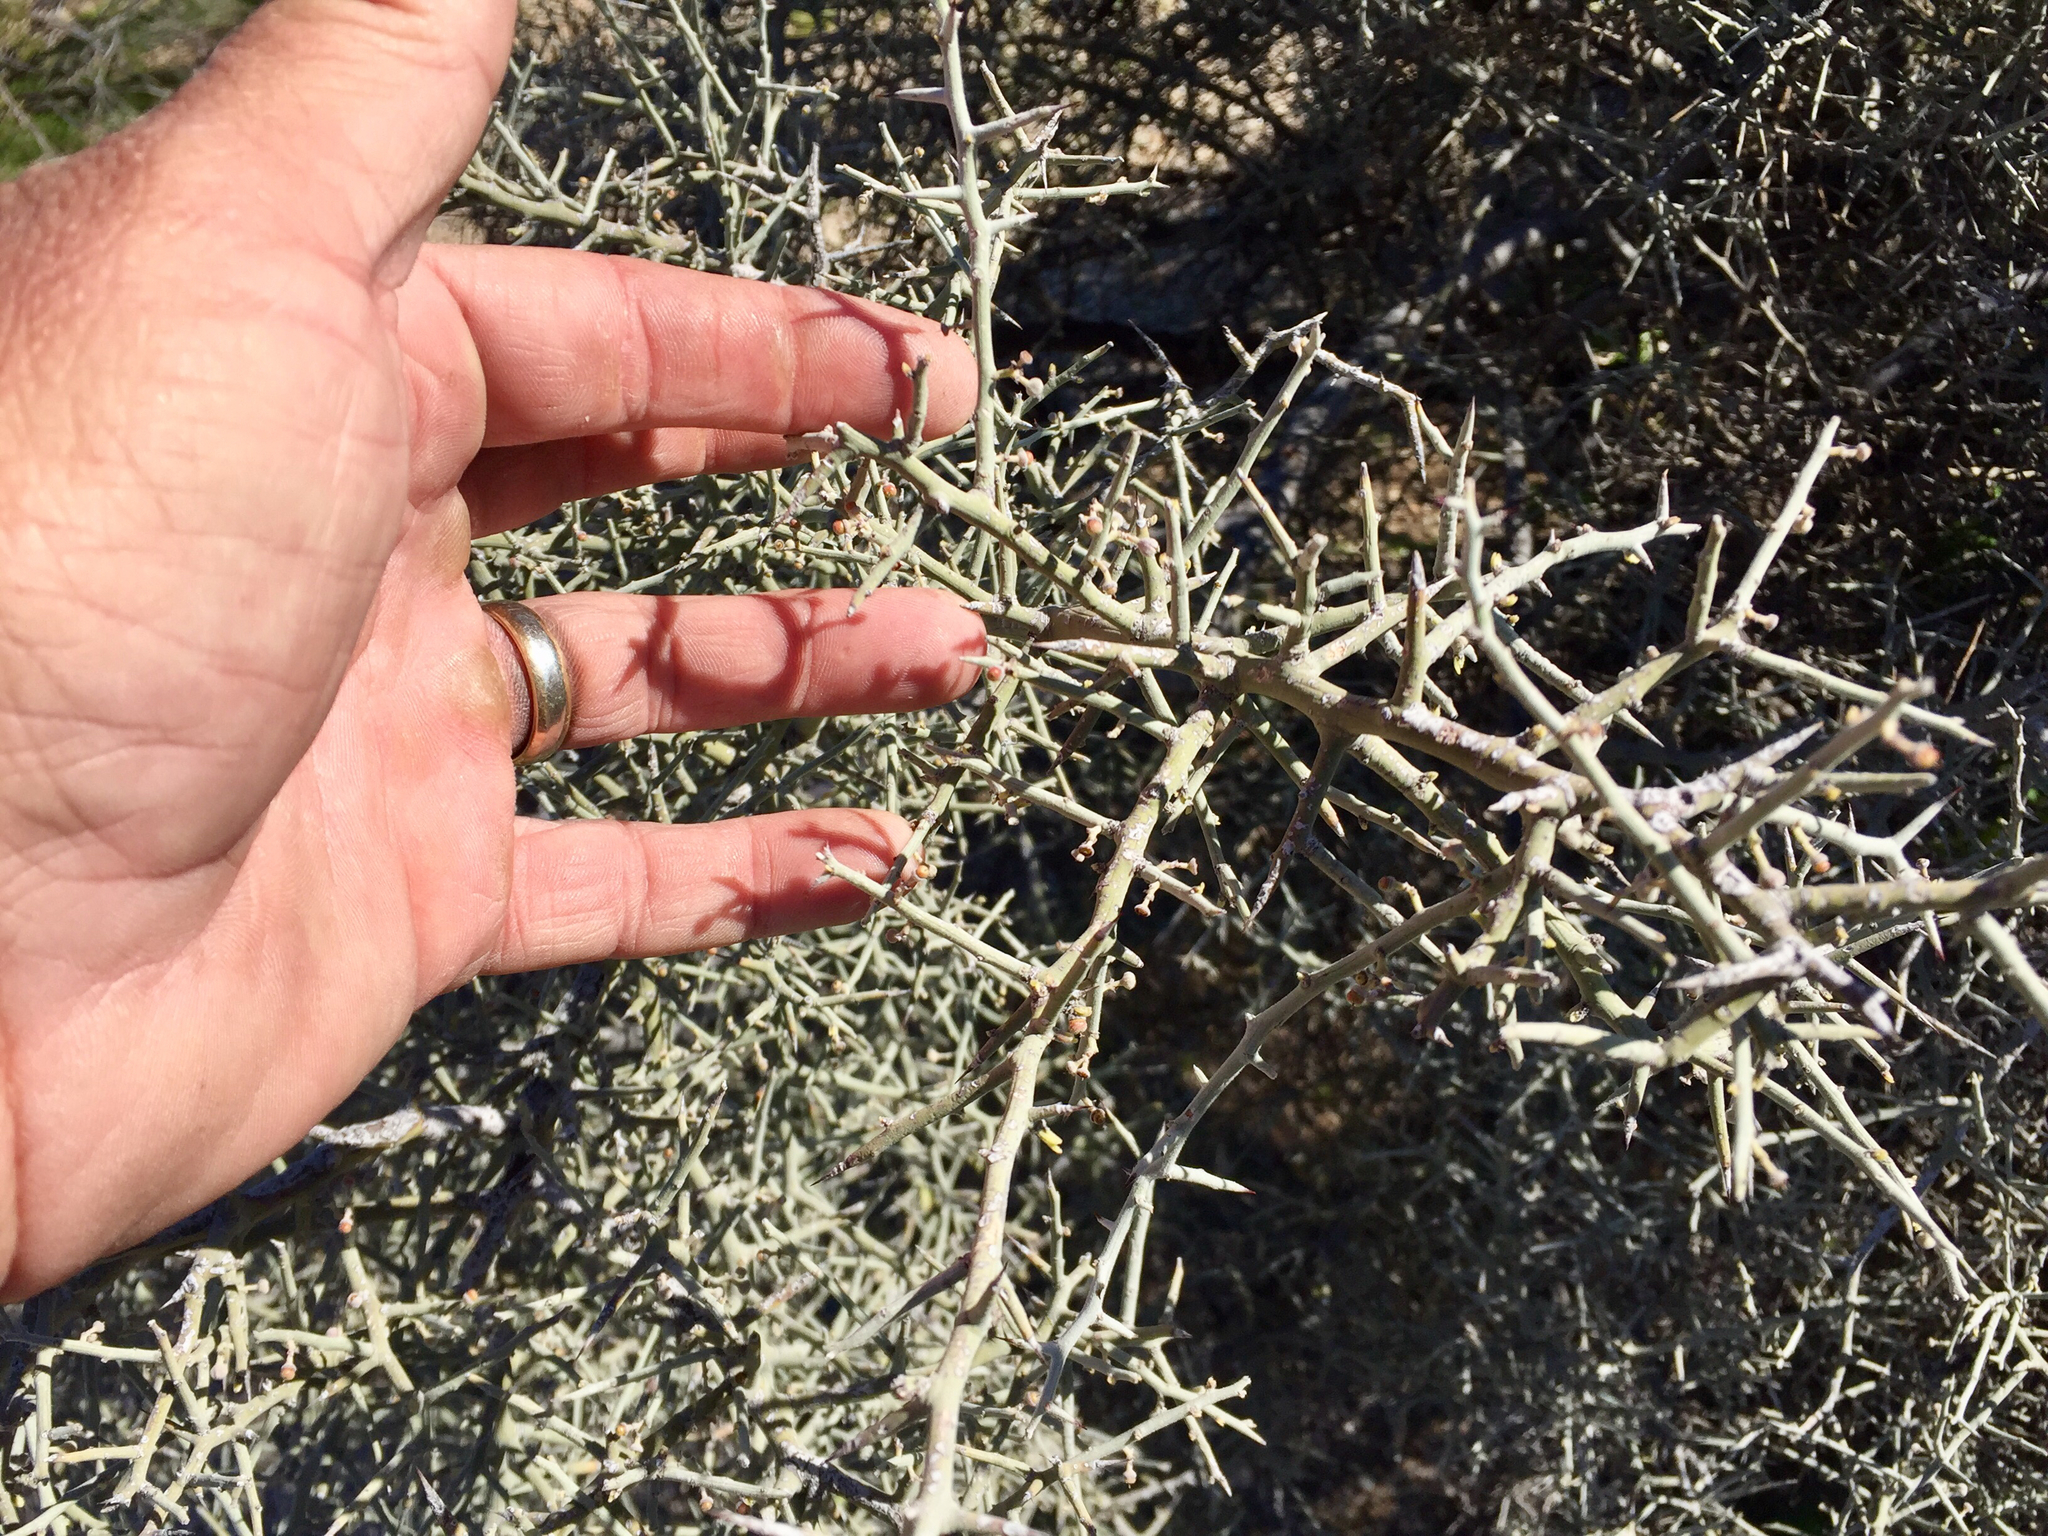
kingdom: Plantae
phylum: Tracheophyta
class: Magnoliopsida
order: Rosales
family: Rhamnaceae
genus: Sarcomphalus
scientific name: Sarcomphalus obtusifolius
